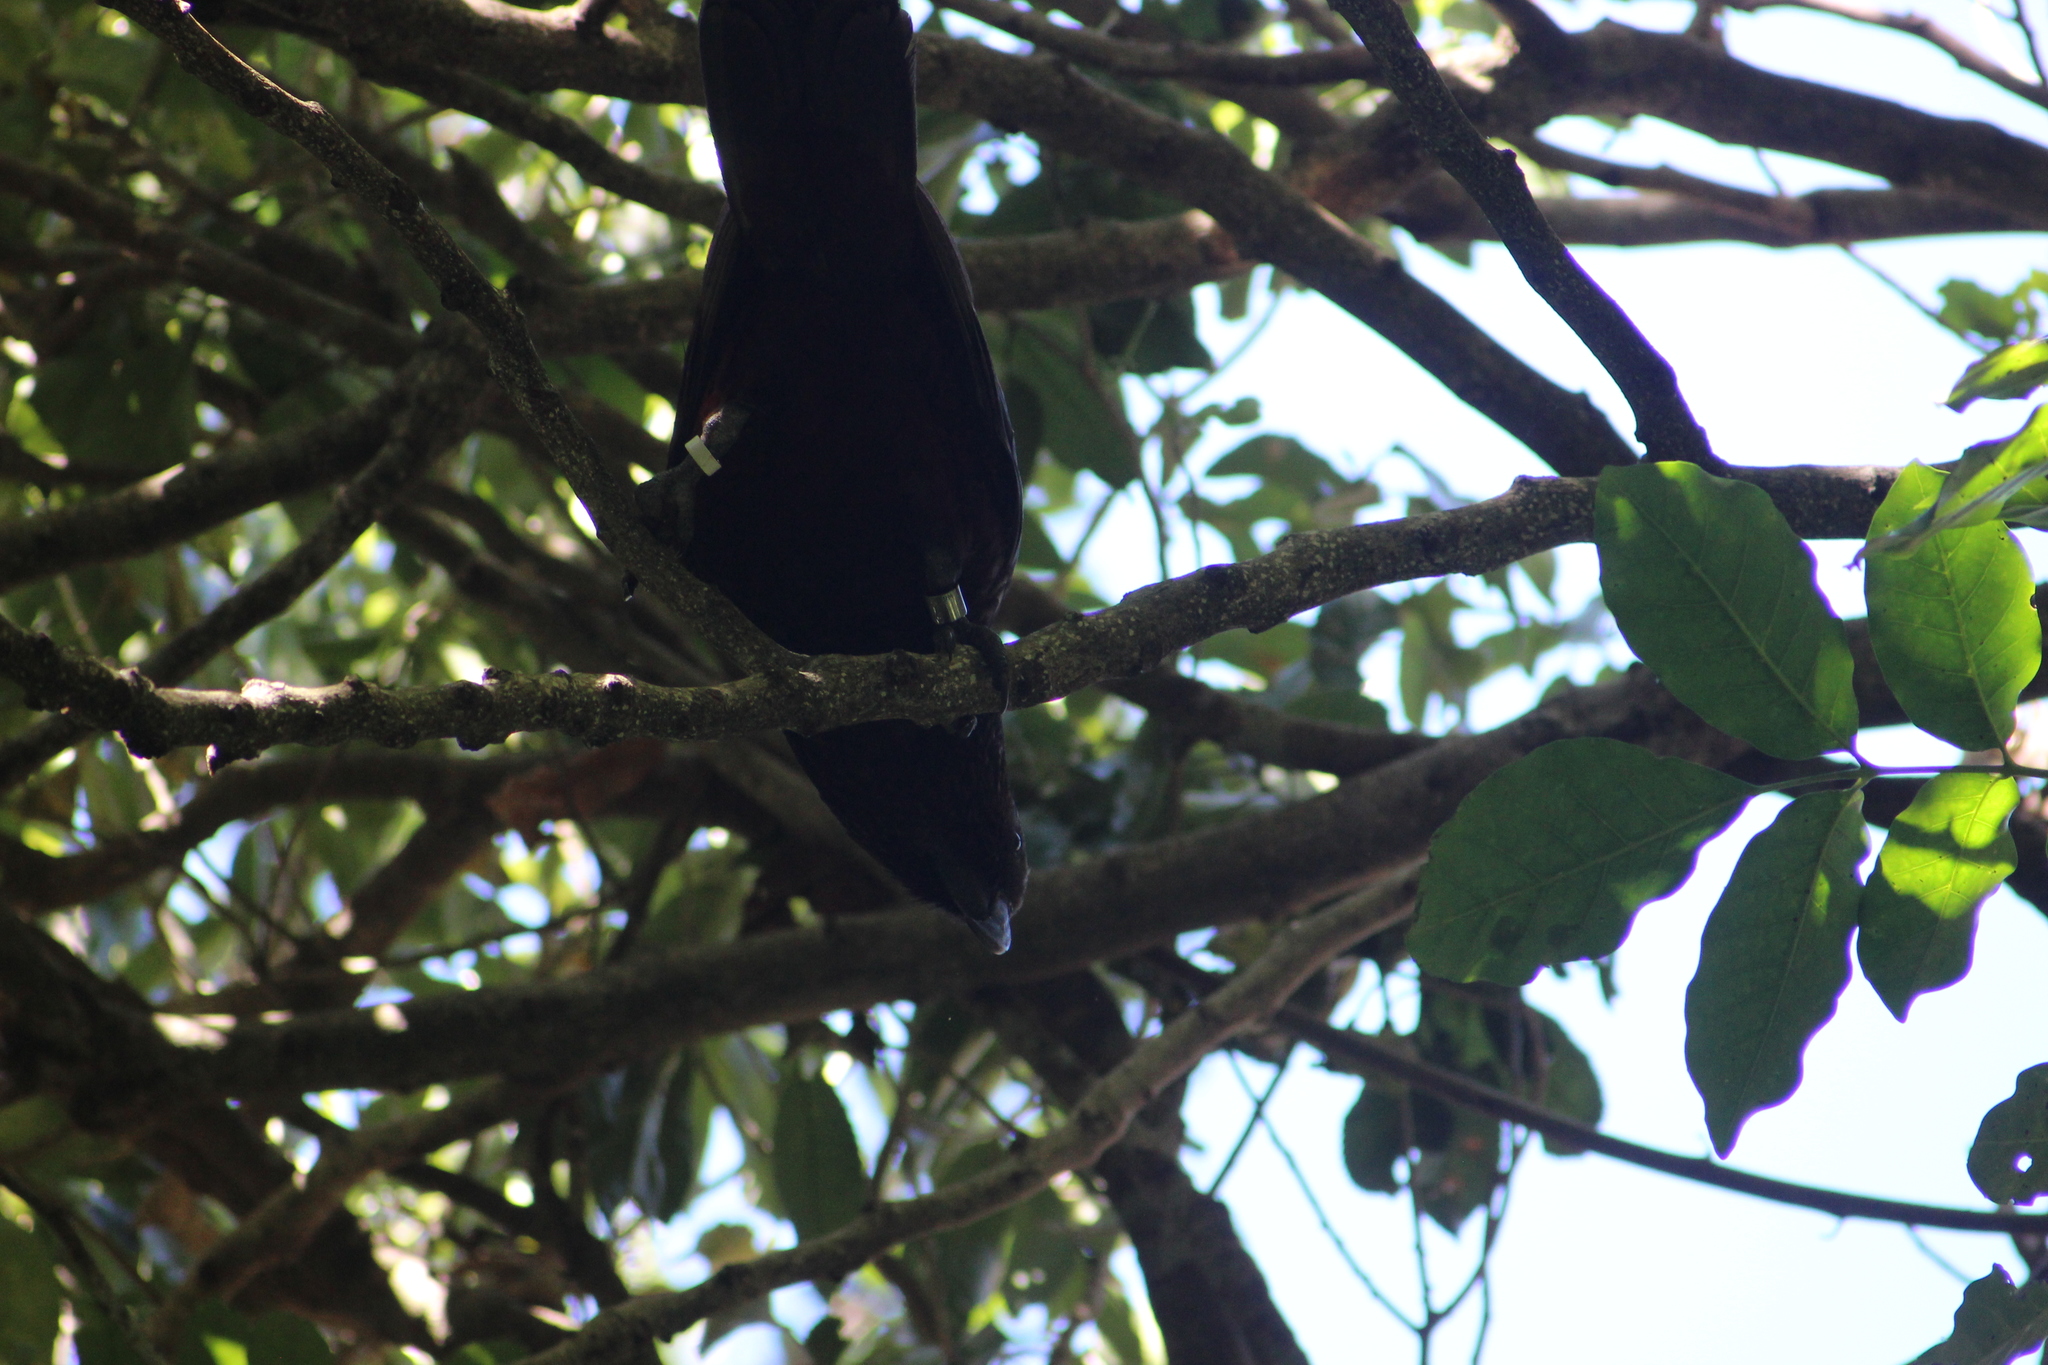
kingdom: Animalia
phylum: Chordata
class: Aves
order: Psittaciformes
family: Psittacidae
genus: Nestor
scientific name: Nestor meridionalis
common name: New zealand kaka
